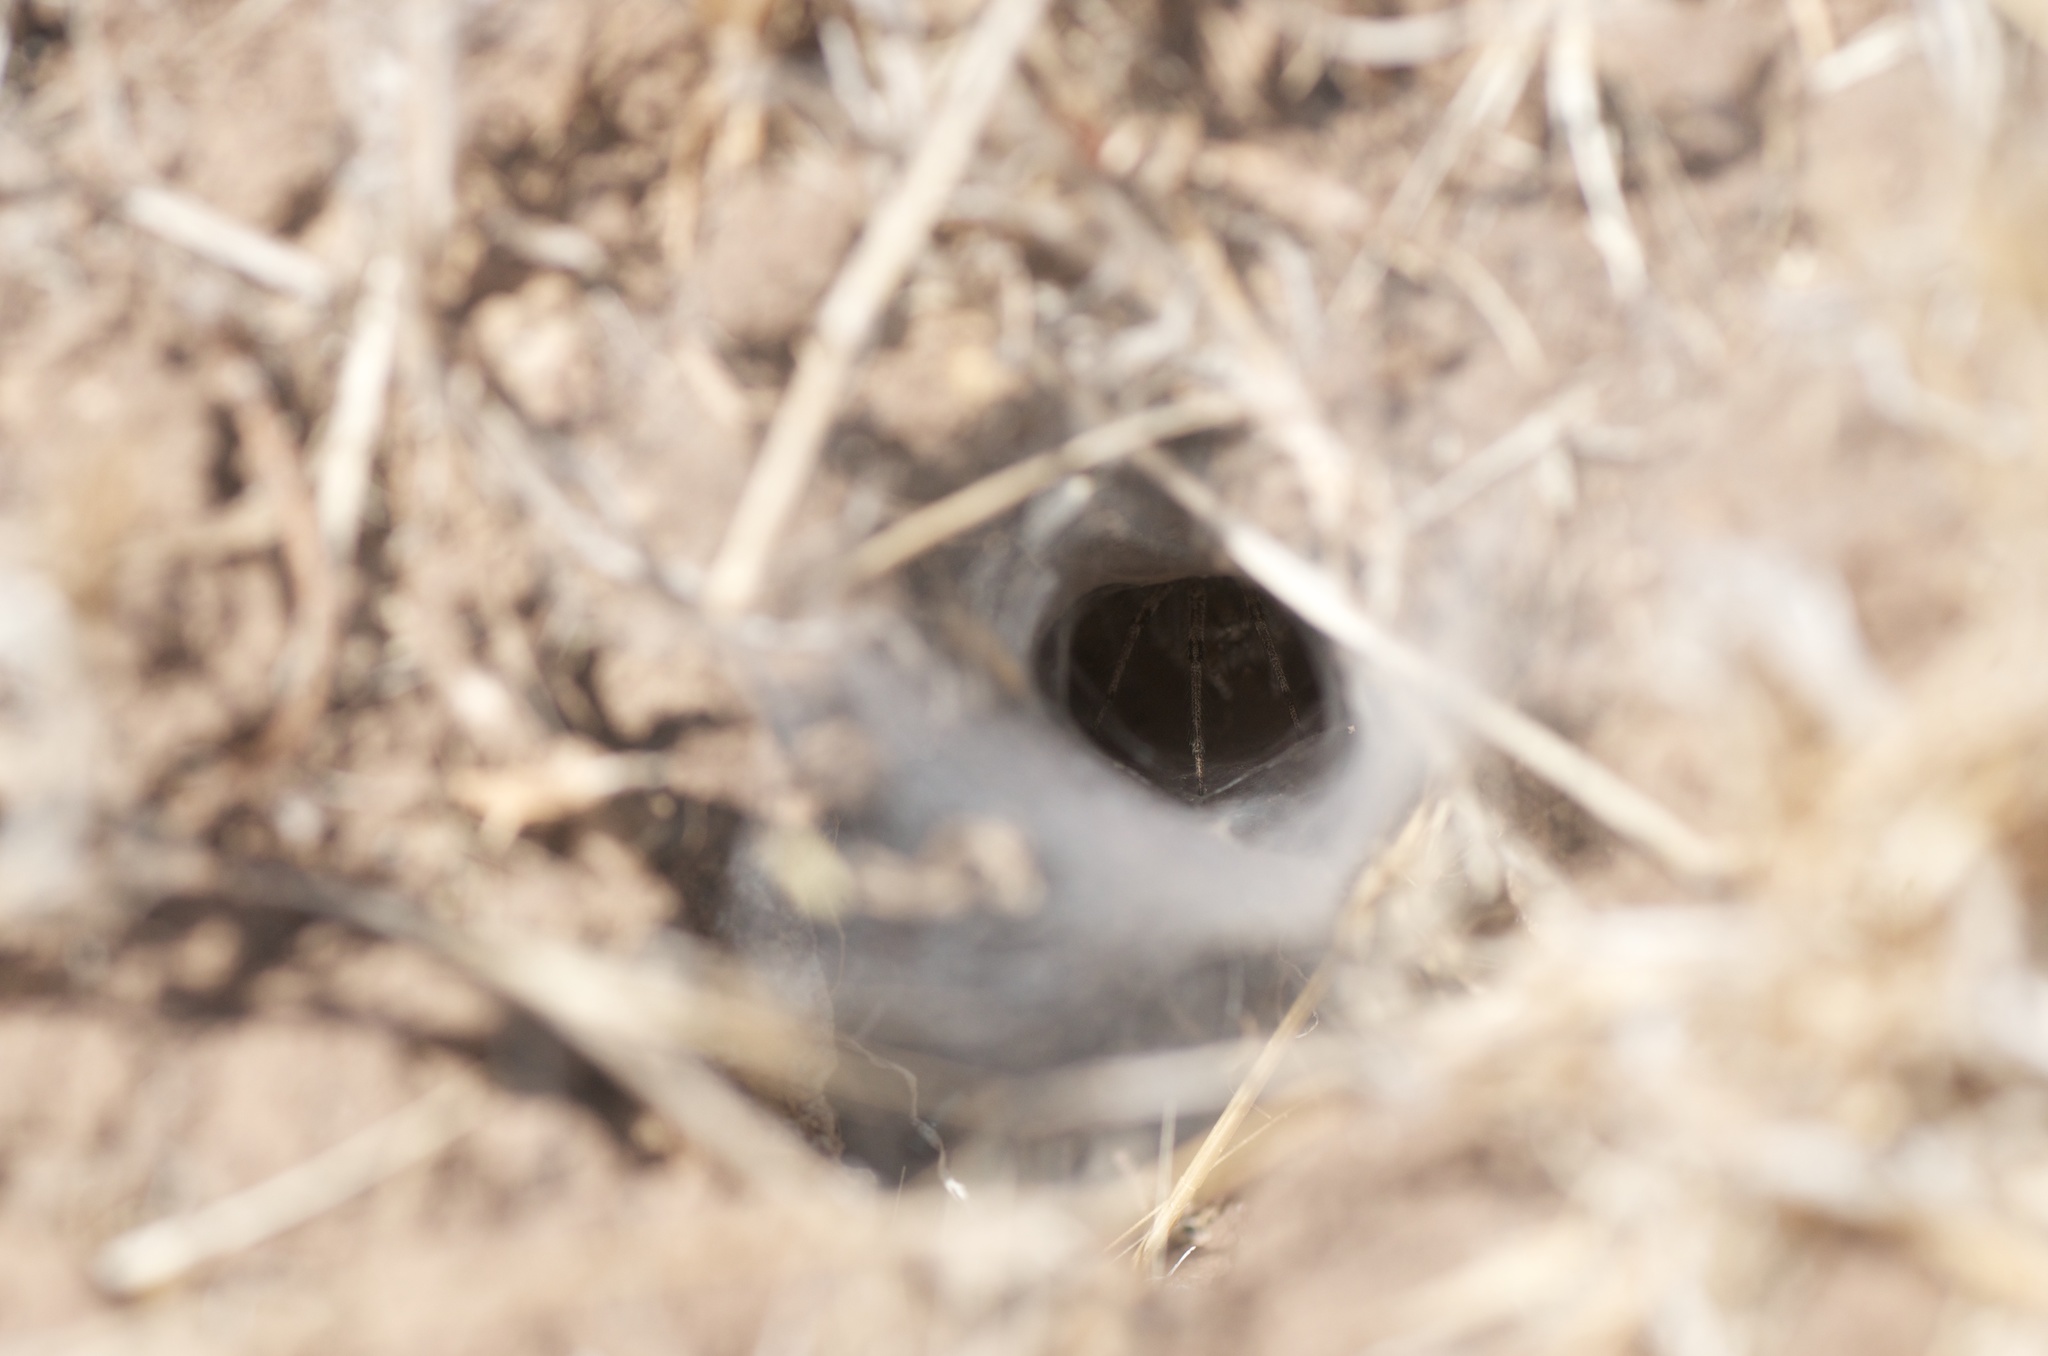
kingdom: Animalia
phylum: Arthropoda
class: Arachnida
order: Araneae
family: Agelenidae
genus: Agelenopsis
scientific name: Agelenopsis
